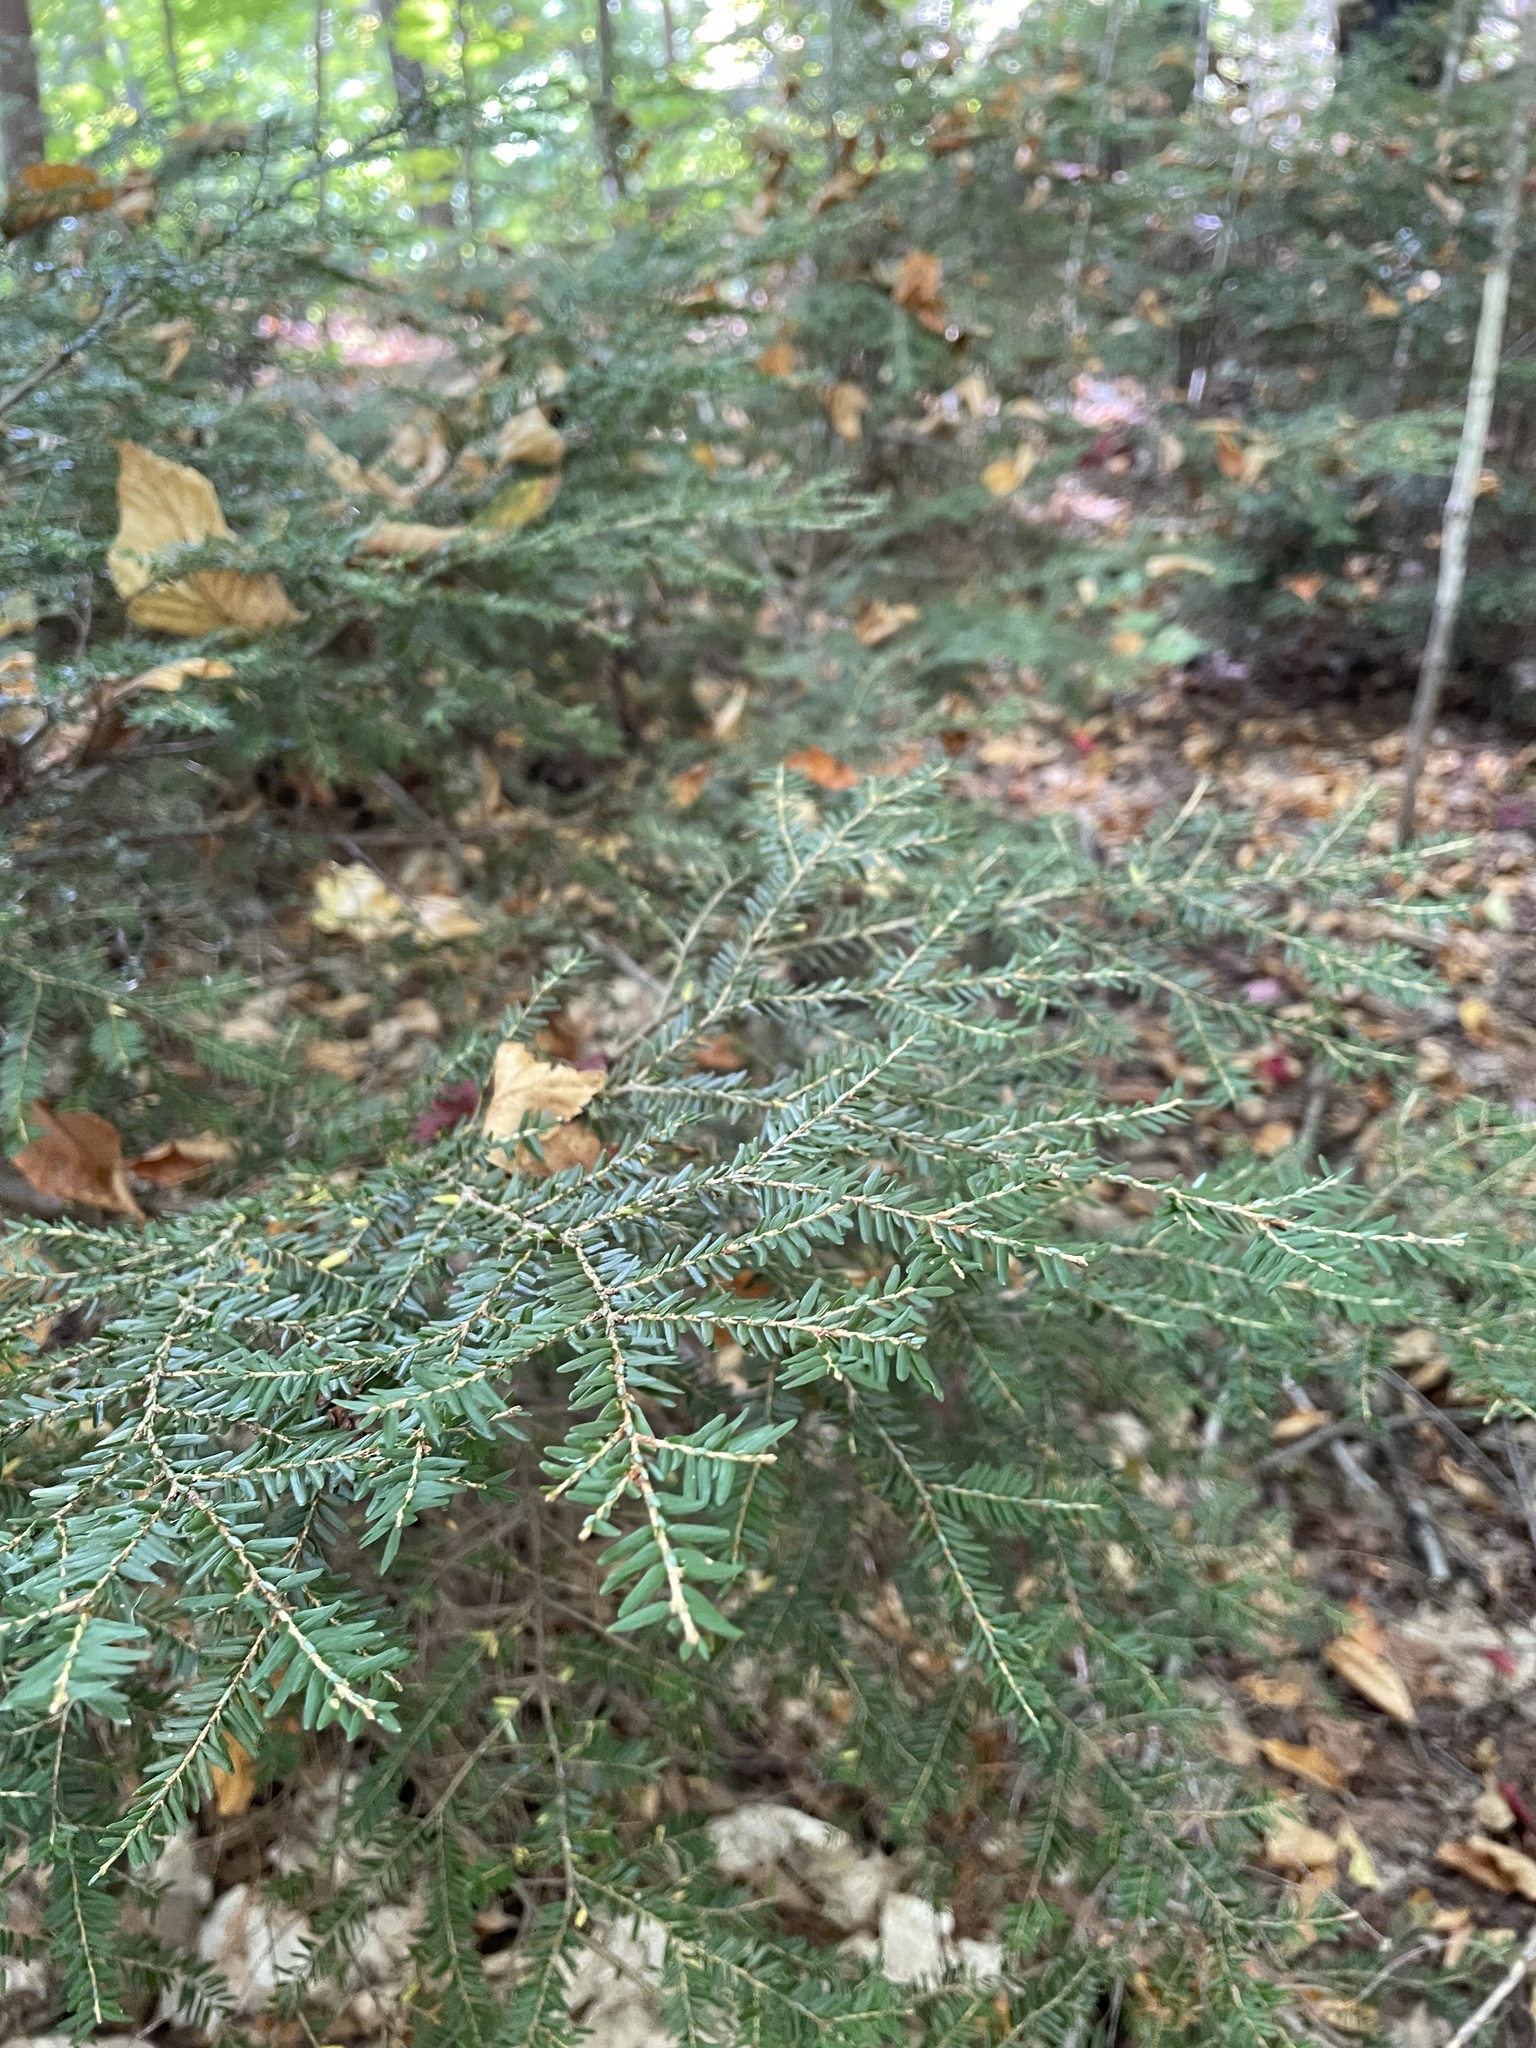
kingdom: Plantae
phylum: Tracheophyta
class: Pinopsida
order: Pinales
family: Pinaceae
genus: Tsuga
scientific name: Tsuga canadensis
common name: Eastern hemlock
